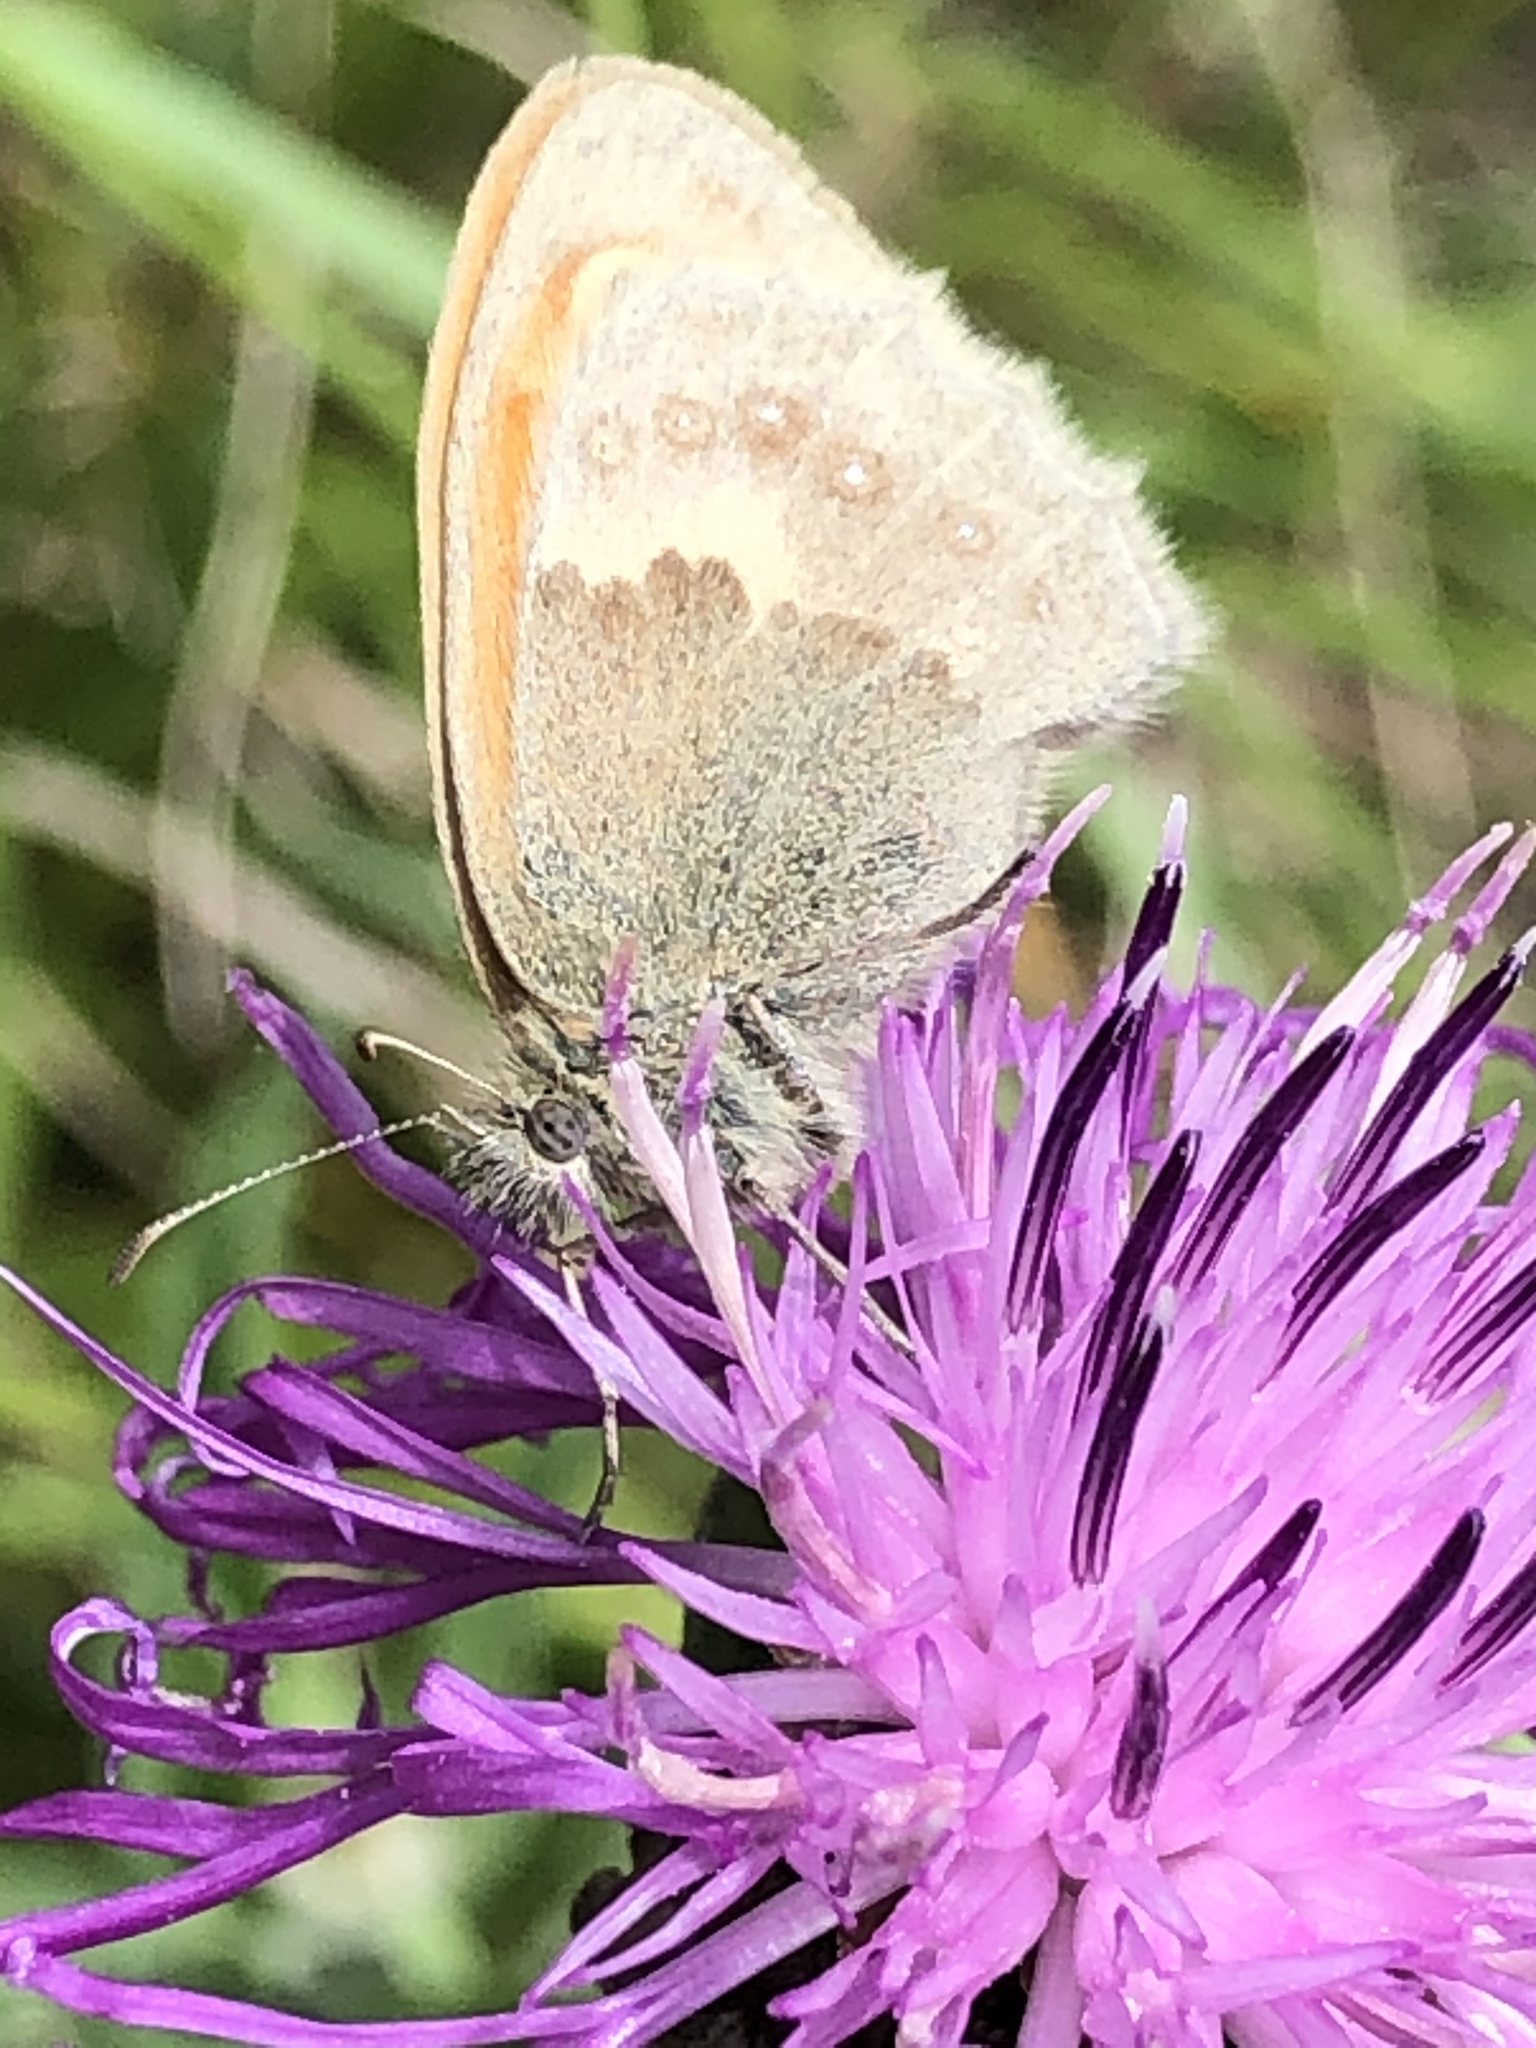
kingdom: Animalia
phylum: Arthropoda
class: Insecta
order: Lepidoptera
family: Nymphalidae
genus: Coenonympha
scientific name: Coenonympha pamphilus
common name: Small heath
